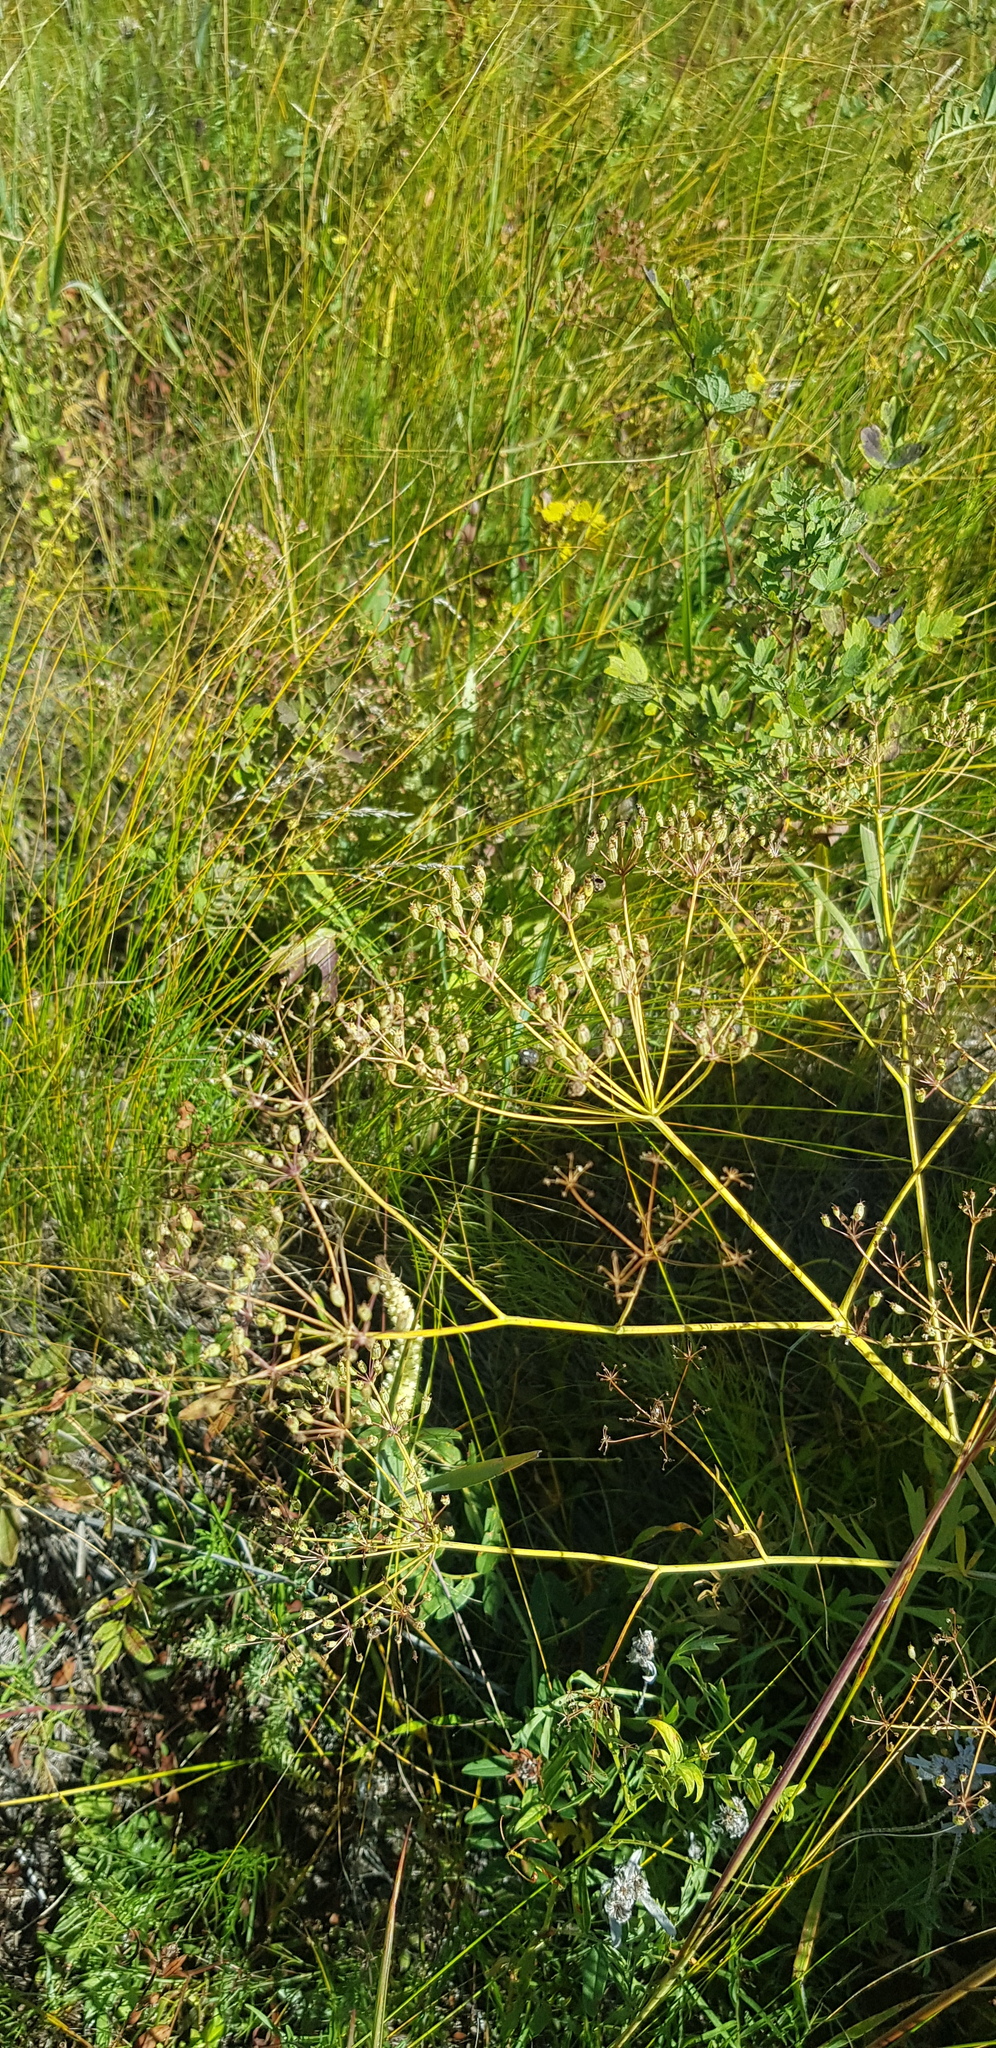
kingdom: Plantae
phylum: Tracheophyta
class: Magnoliopsida
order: Apiales
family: Apiaceae
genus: Saposhnikovia
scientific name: Saposhnikovia divaricata
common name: Siler
